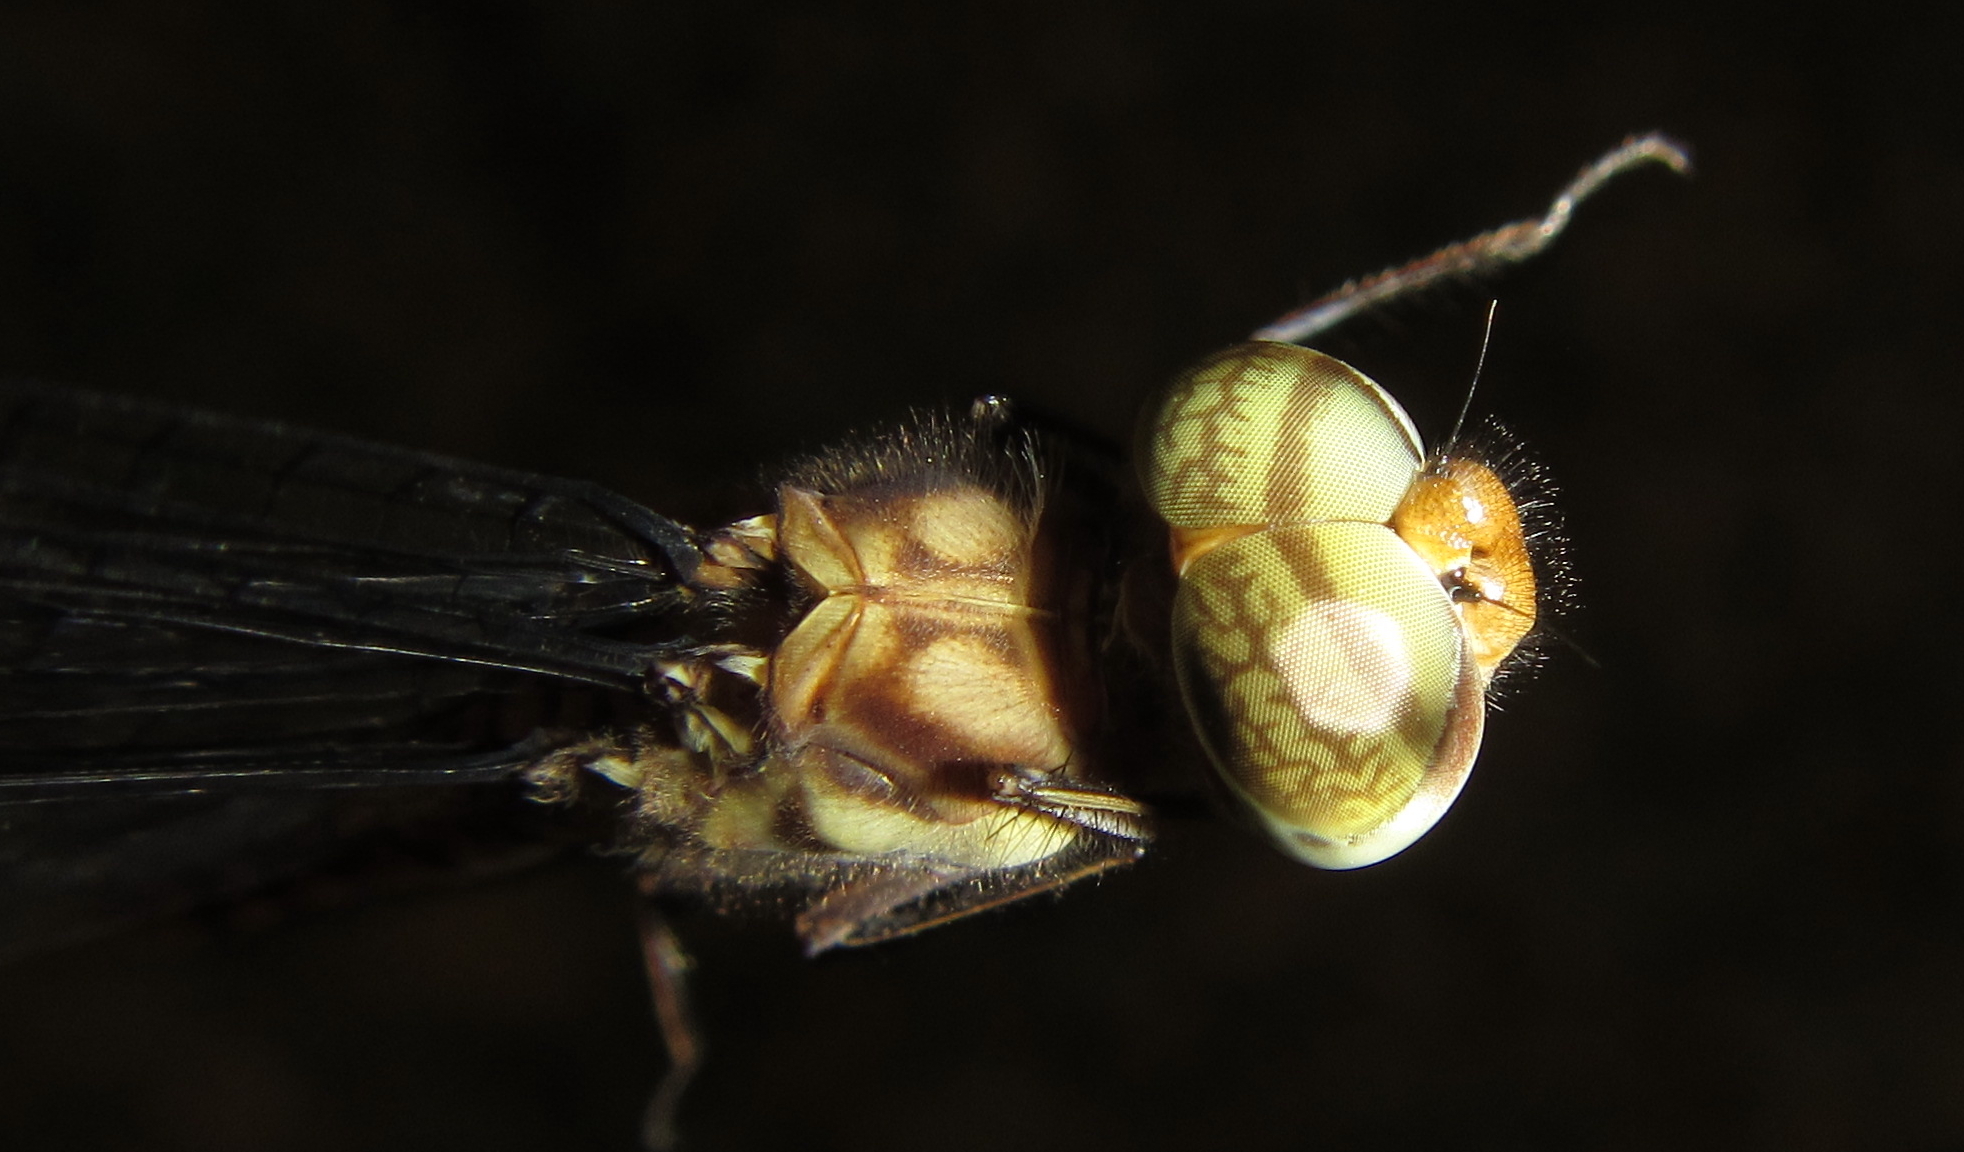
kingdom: Animalia
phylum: Arthropoda
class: Insecta
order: Odonata
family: Libellulidae
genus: Parazyxomma
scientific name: Parazyxomma flavicans
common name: Banded duskdarter
